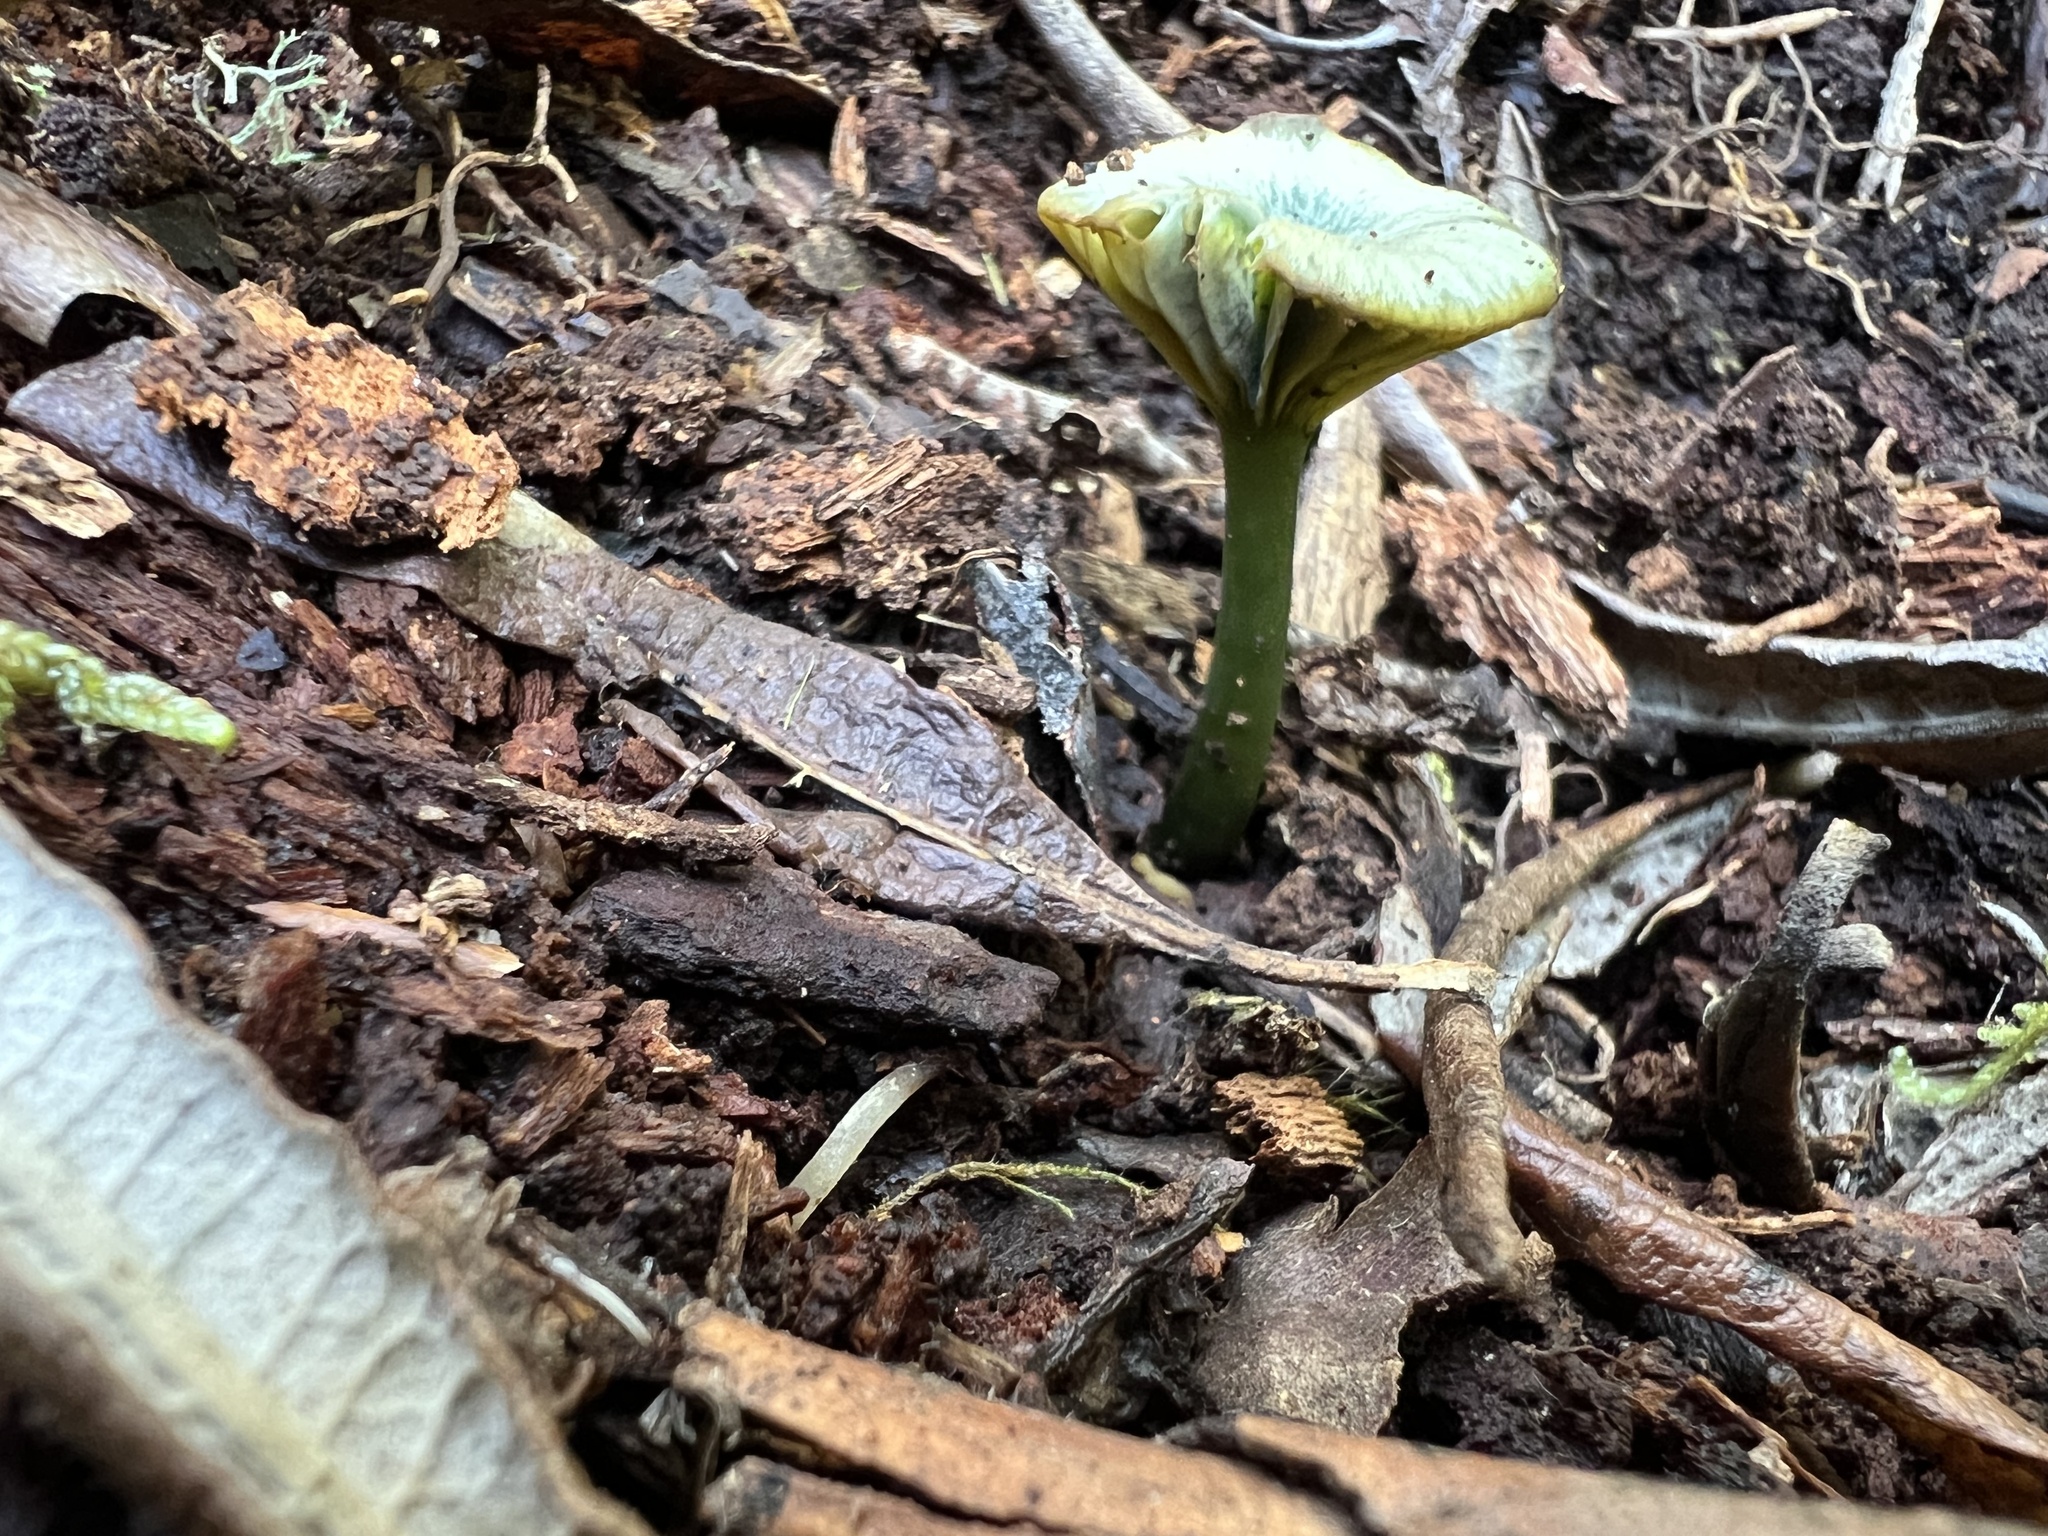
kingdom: Fungi
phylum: Basidiomycota
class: Agaricomycetes
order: Agaricales
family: Entolomataceae
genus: Entoloma
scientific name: Entoloma rodwayi
